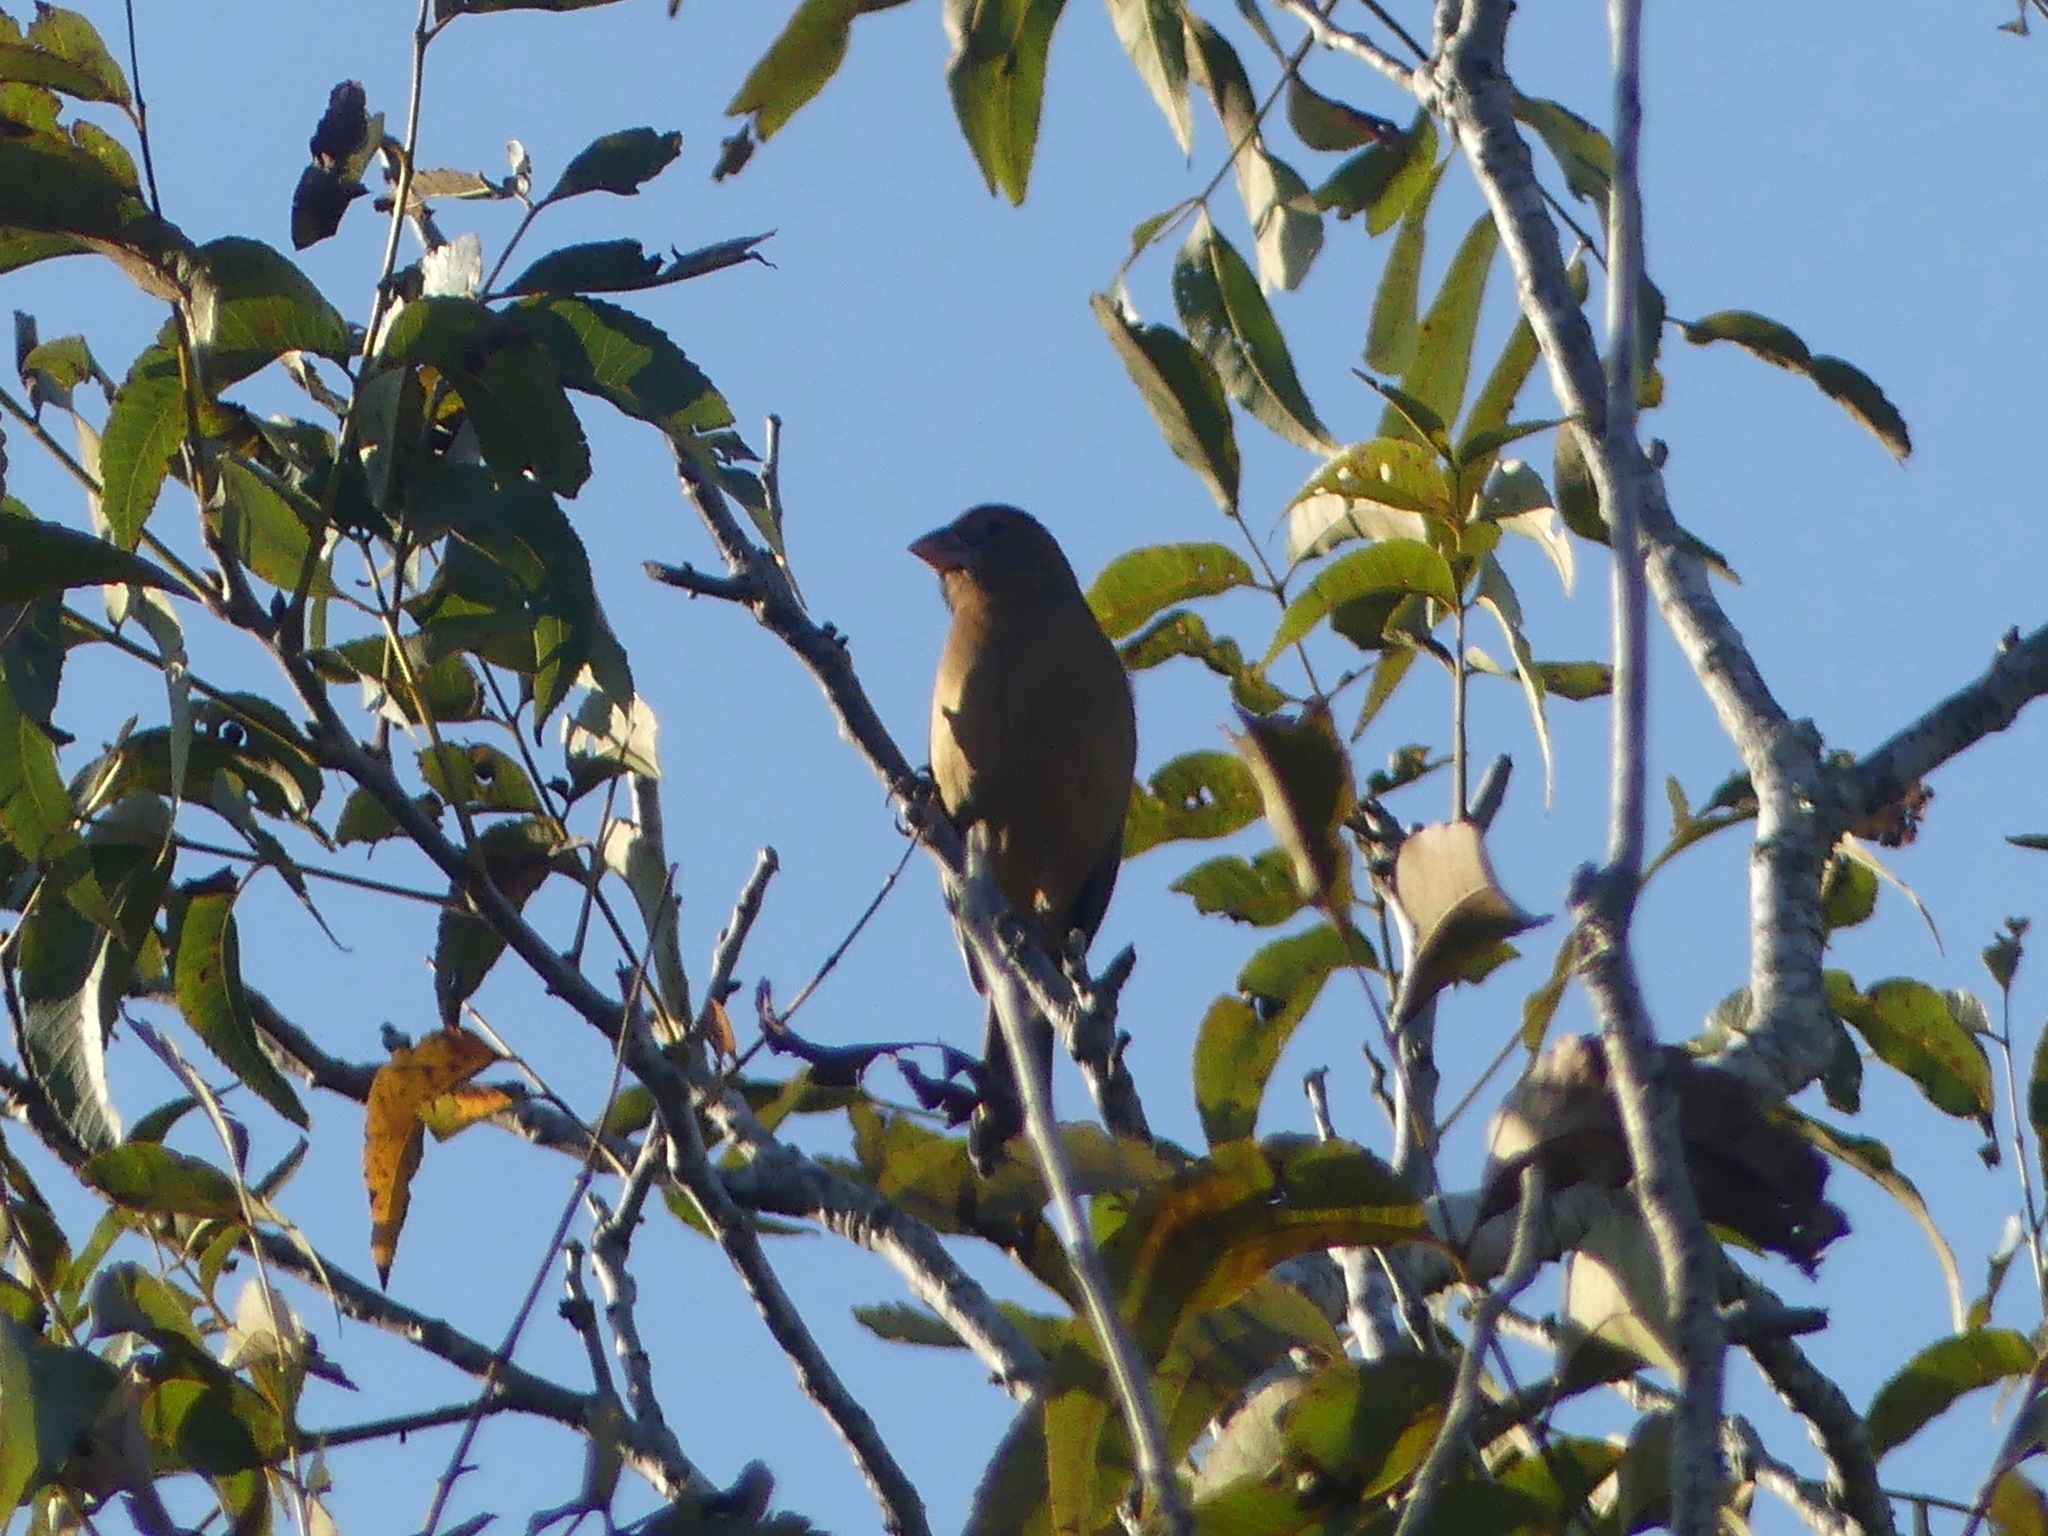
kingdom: Animalia
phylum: Chordata
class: Aves
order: Passeriformes
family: Cardinalidae
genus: Passerina
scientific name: Passerina caerulea
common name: Blue grosbeak
